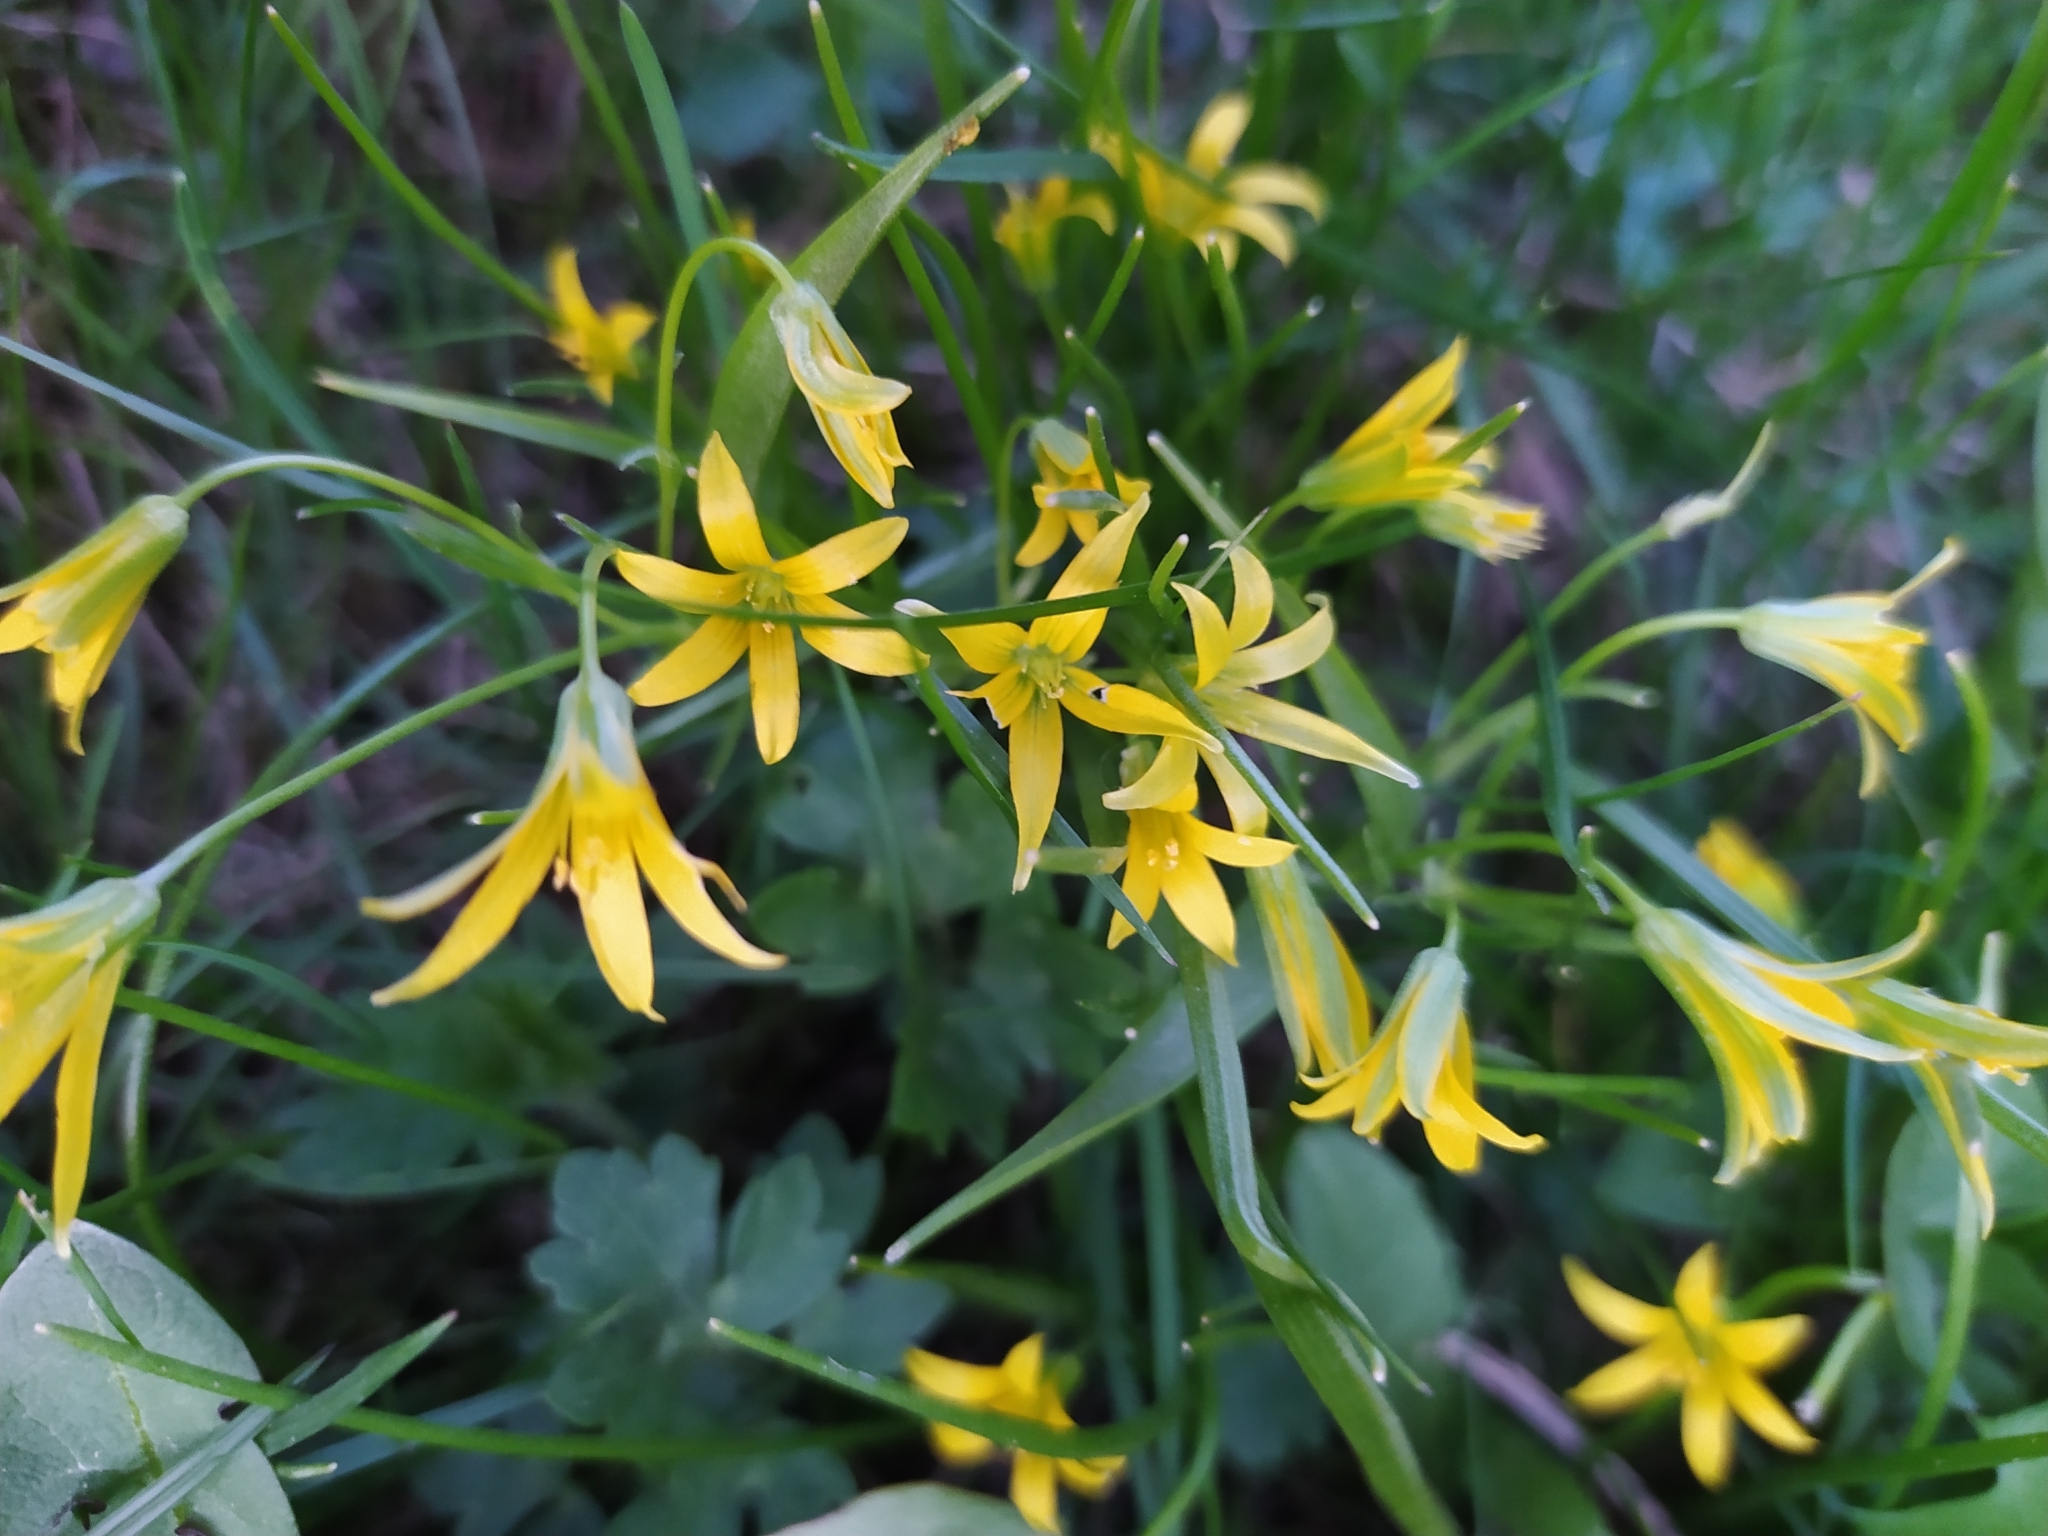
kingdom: Plantae
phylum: Tracheophyta
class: Liliopsida
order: Liliales
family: Liliaceae
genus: Gagea
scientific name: Gagea minima
